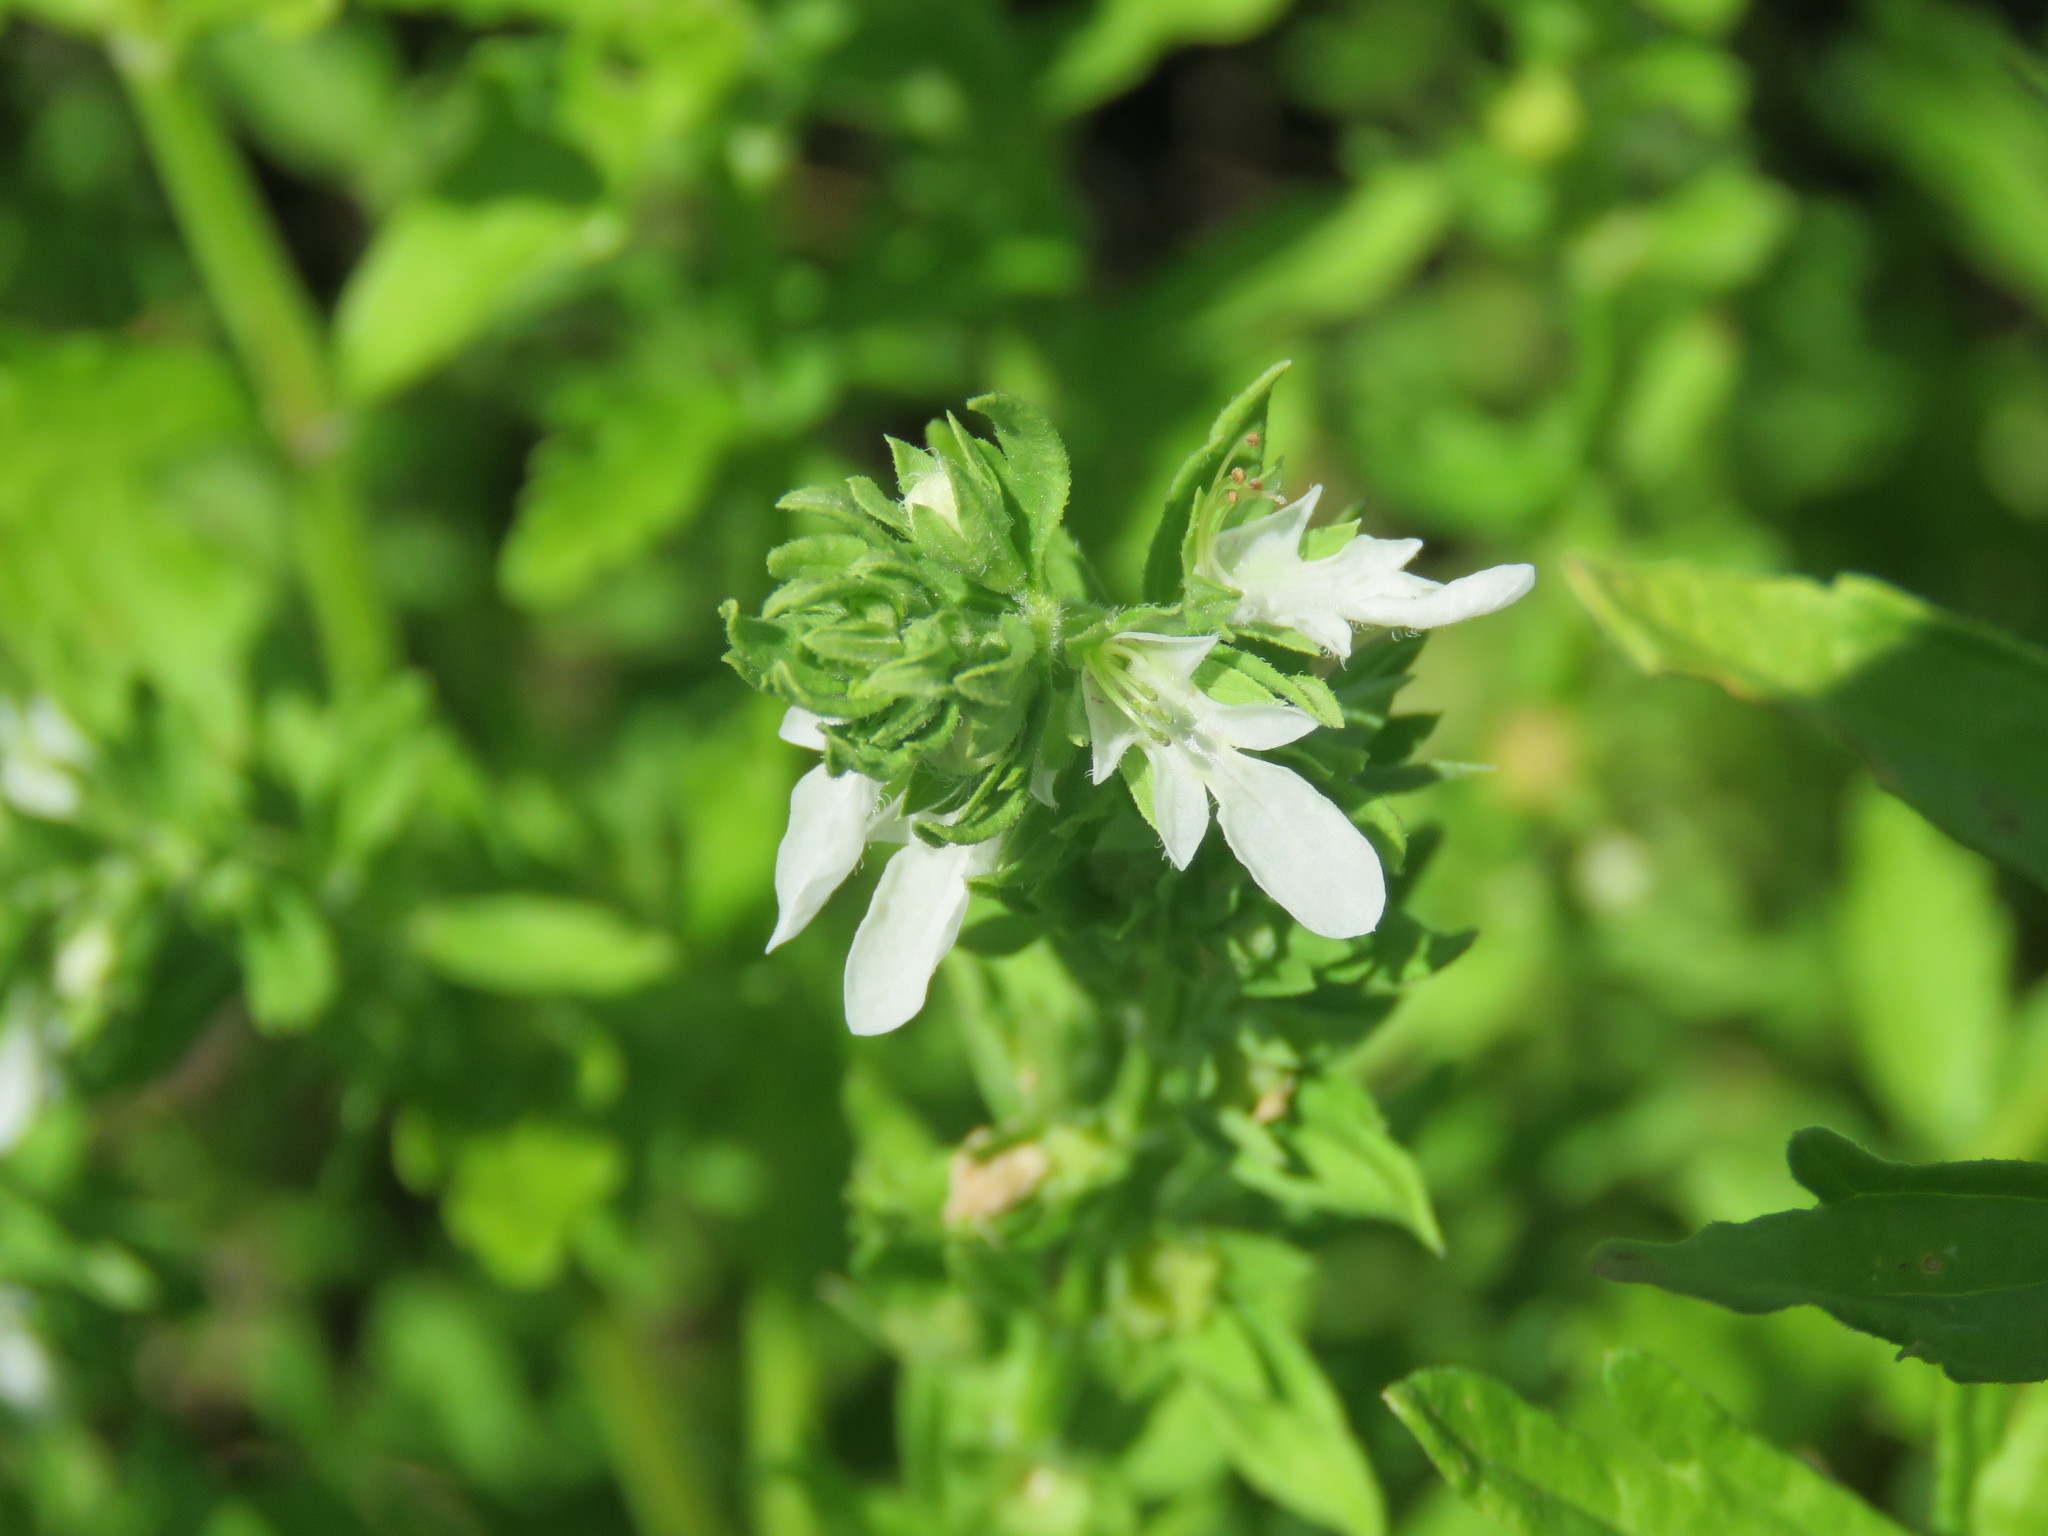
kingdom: Plantae
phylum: Tracheophyta
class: Magnoliopsida
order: Lamiales
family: Lamiaceae
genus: Teucrium
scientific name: Teucrium cubense
